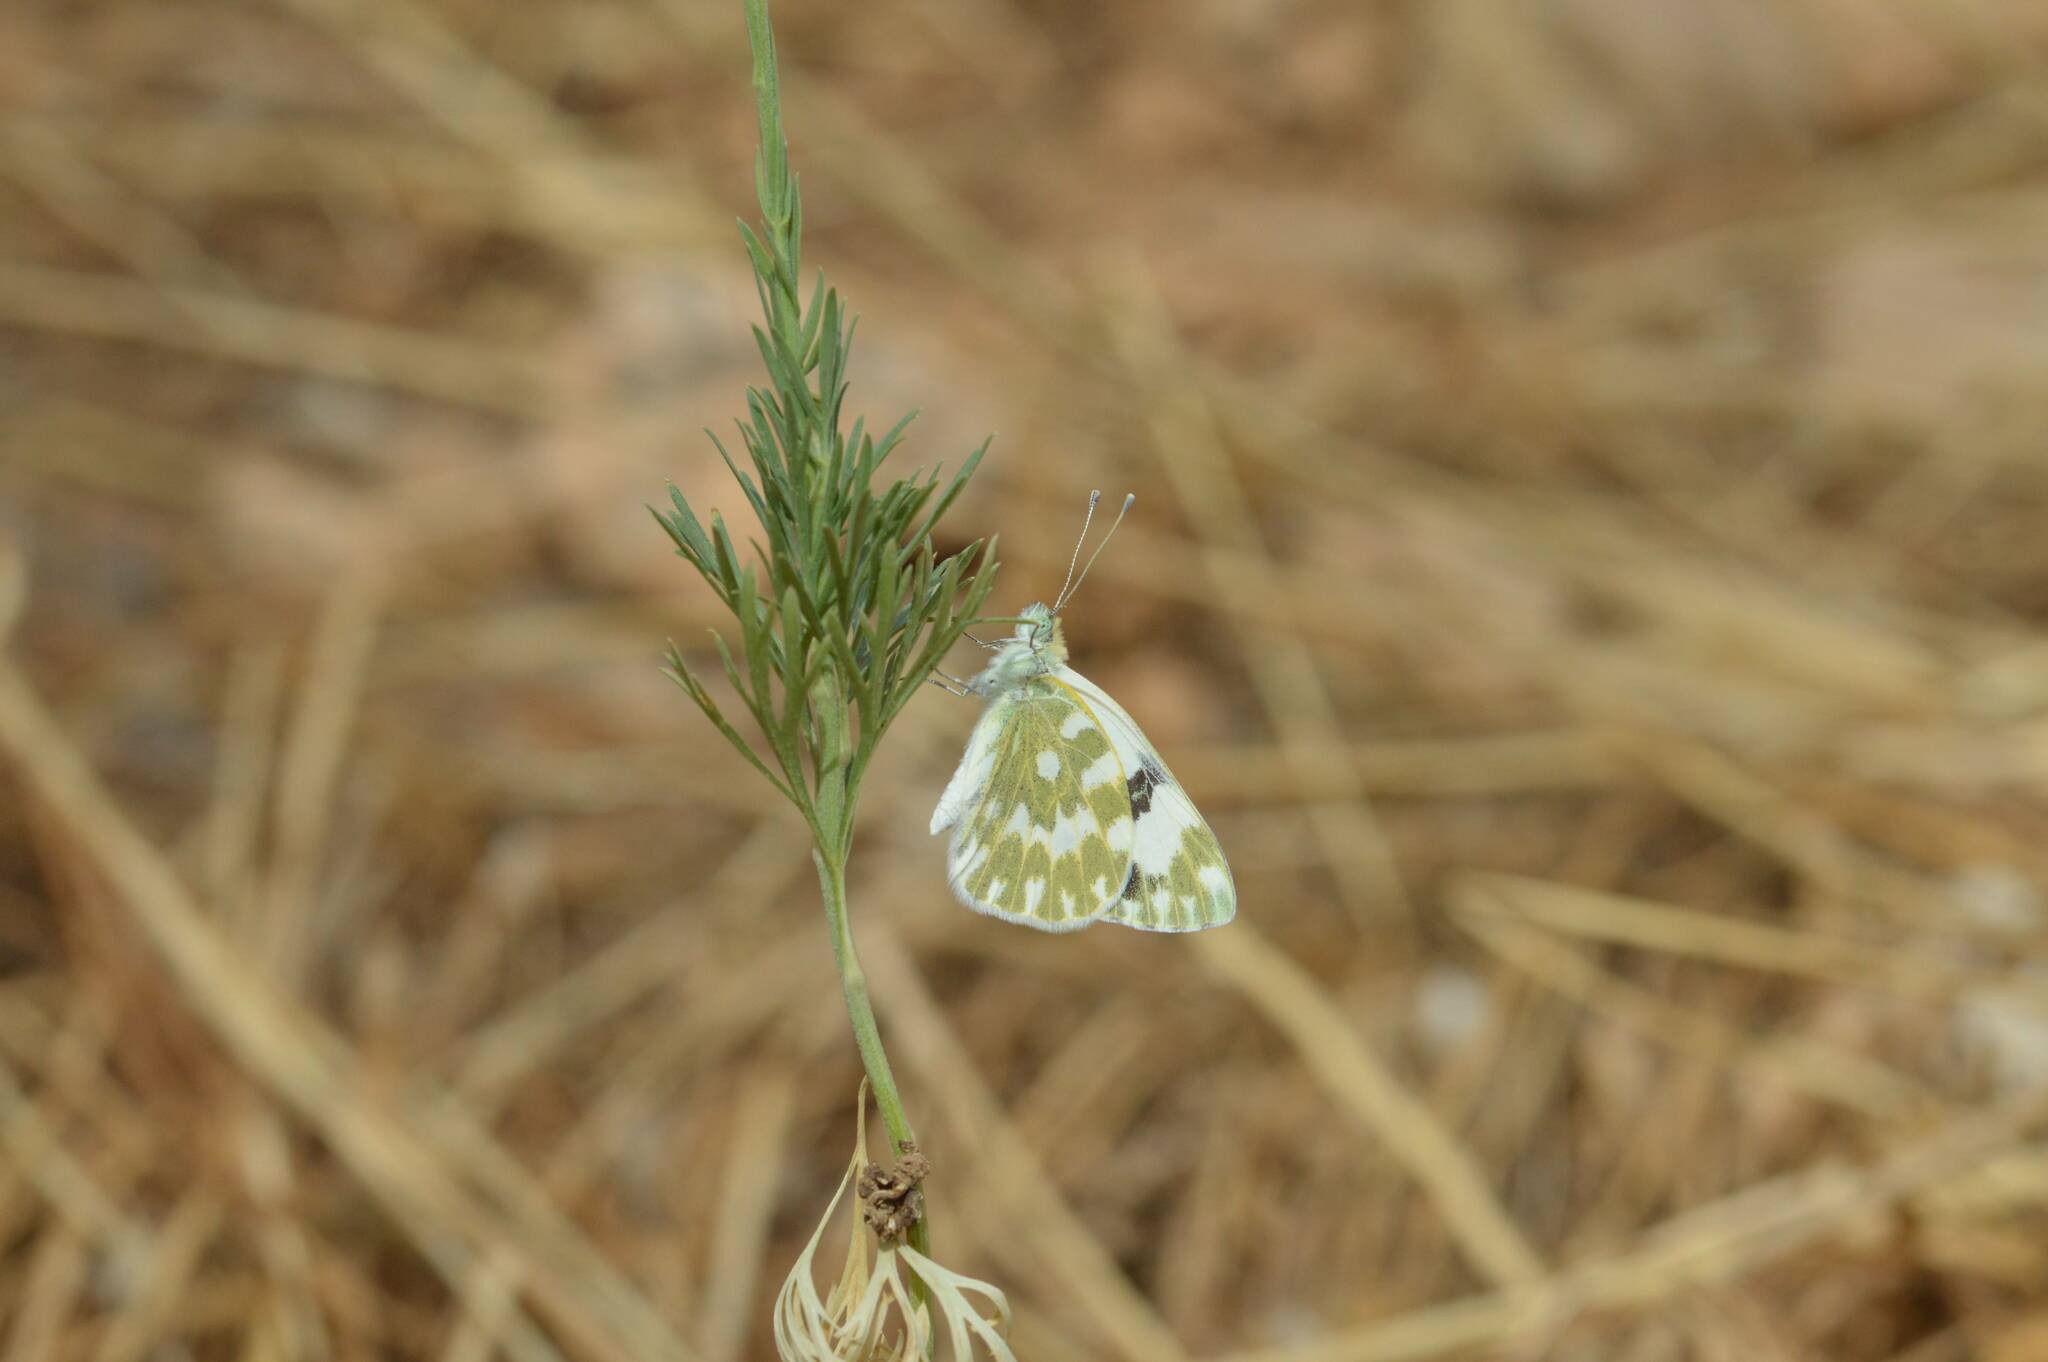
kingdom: Animalia
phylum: Arthropoda
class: Insecta
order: Lepidoptera
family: Pieridae
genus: Pontia
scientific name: Pontia daplidice
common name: Bath white
